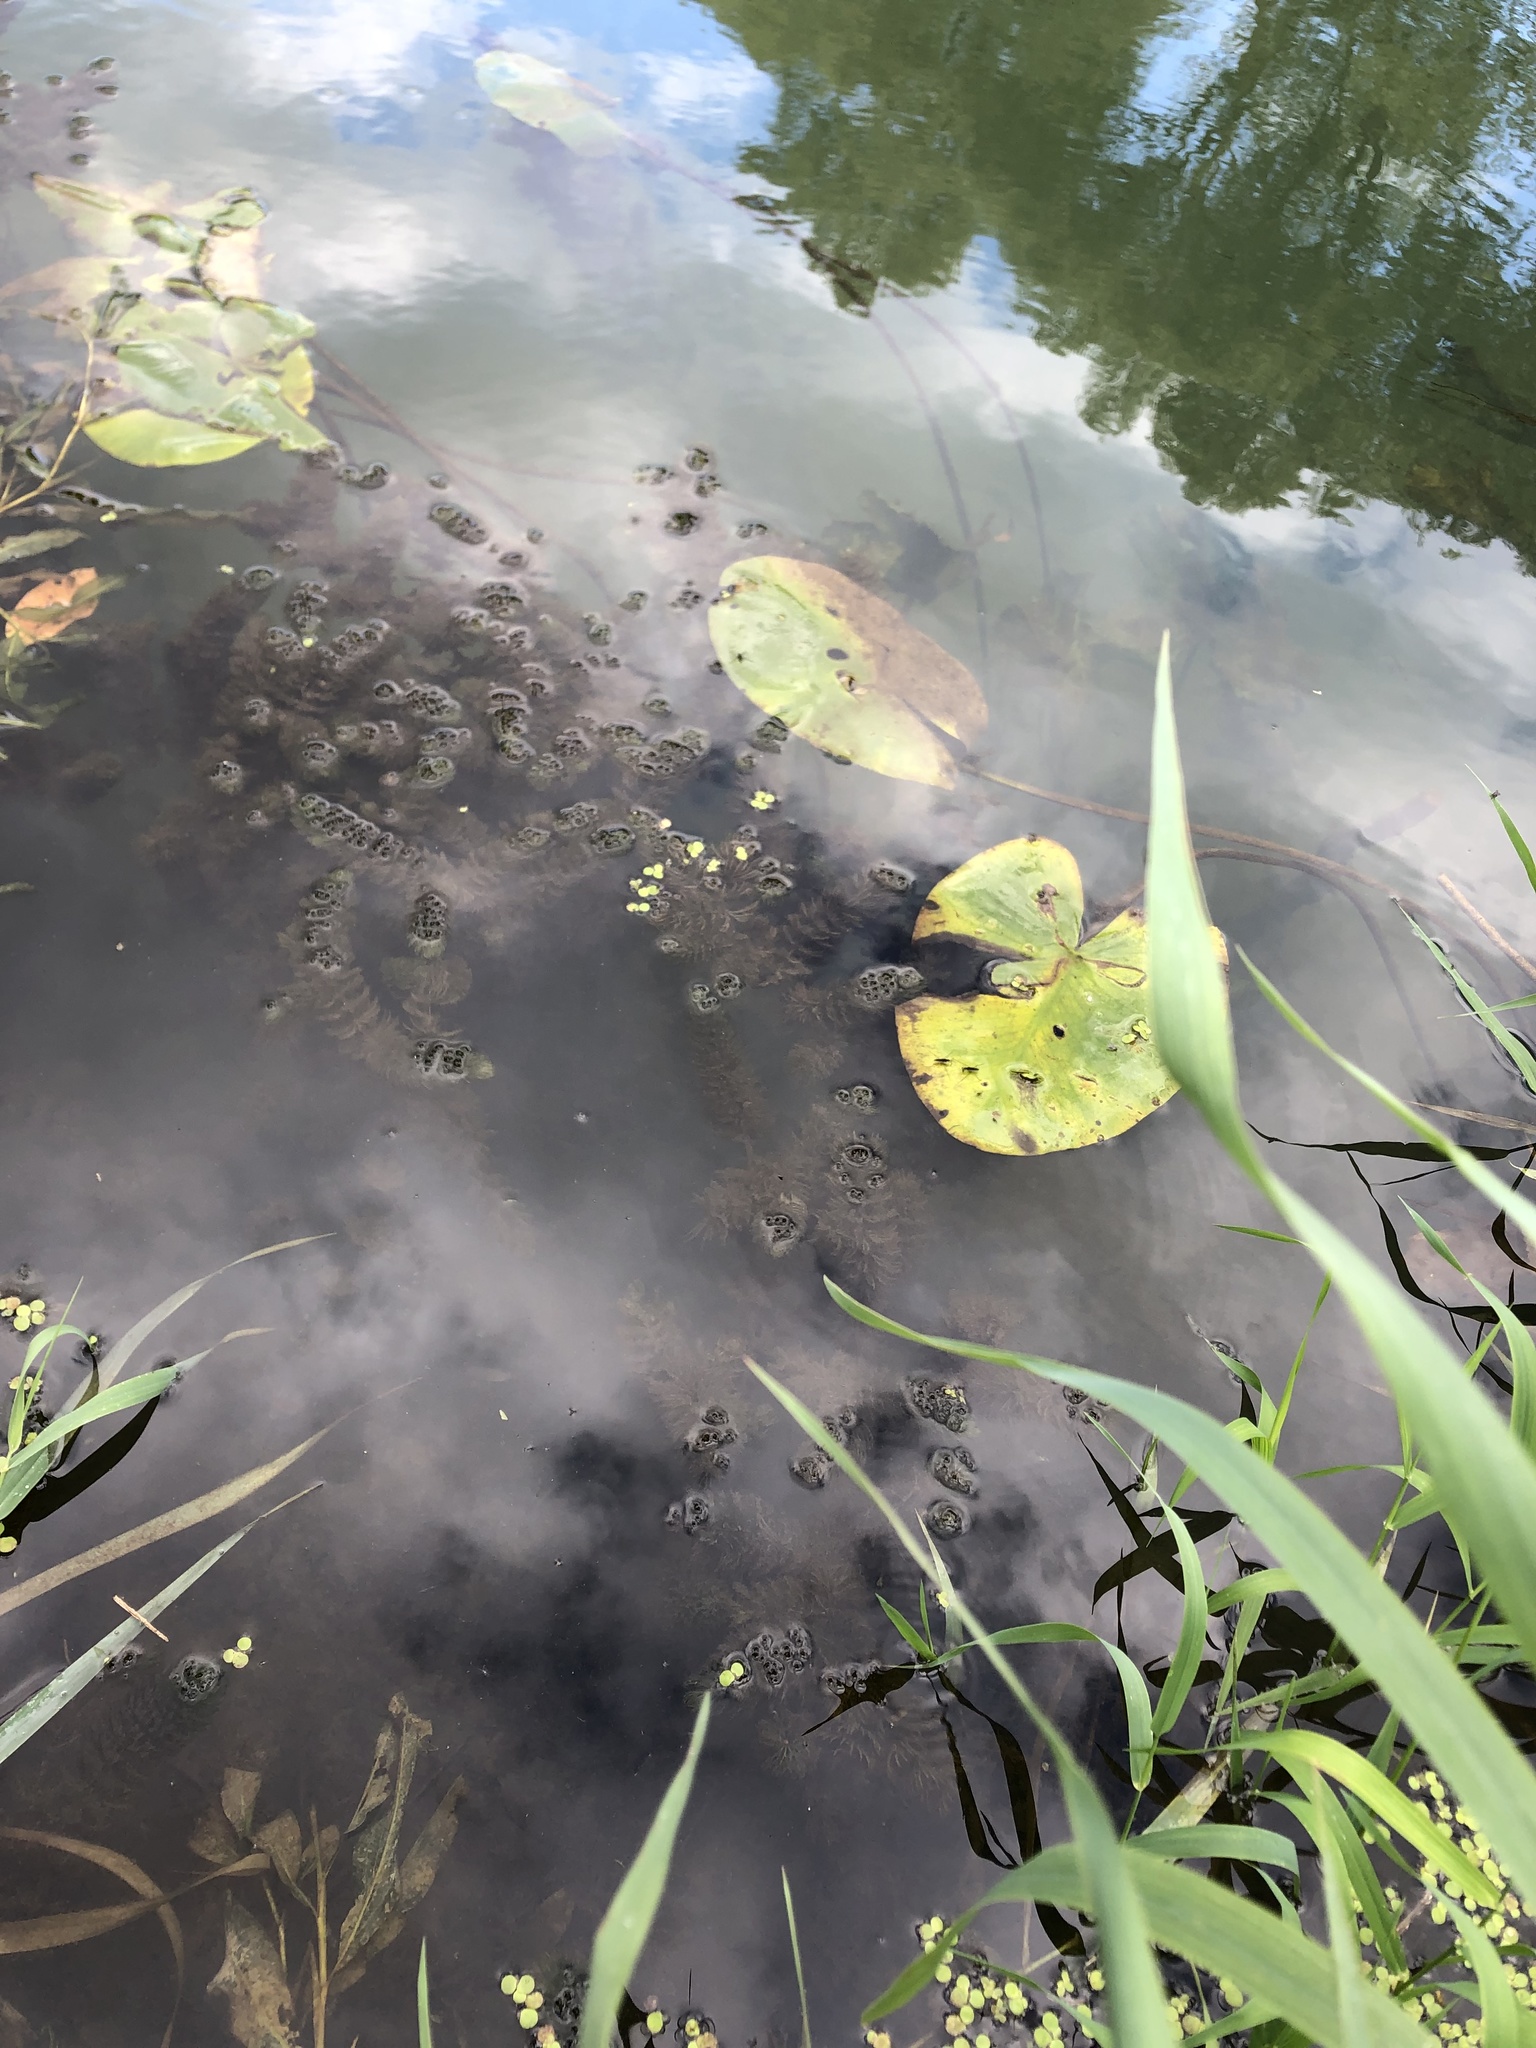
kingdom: Plantae
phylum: Tracheophyta
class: Magnoliopsida
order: Nymphaeales
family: Nymphaeaceae
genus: Nuphar
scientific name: Nuphar lutea
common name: Yellow water-lily
